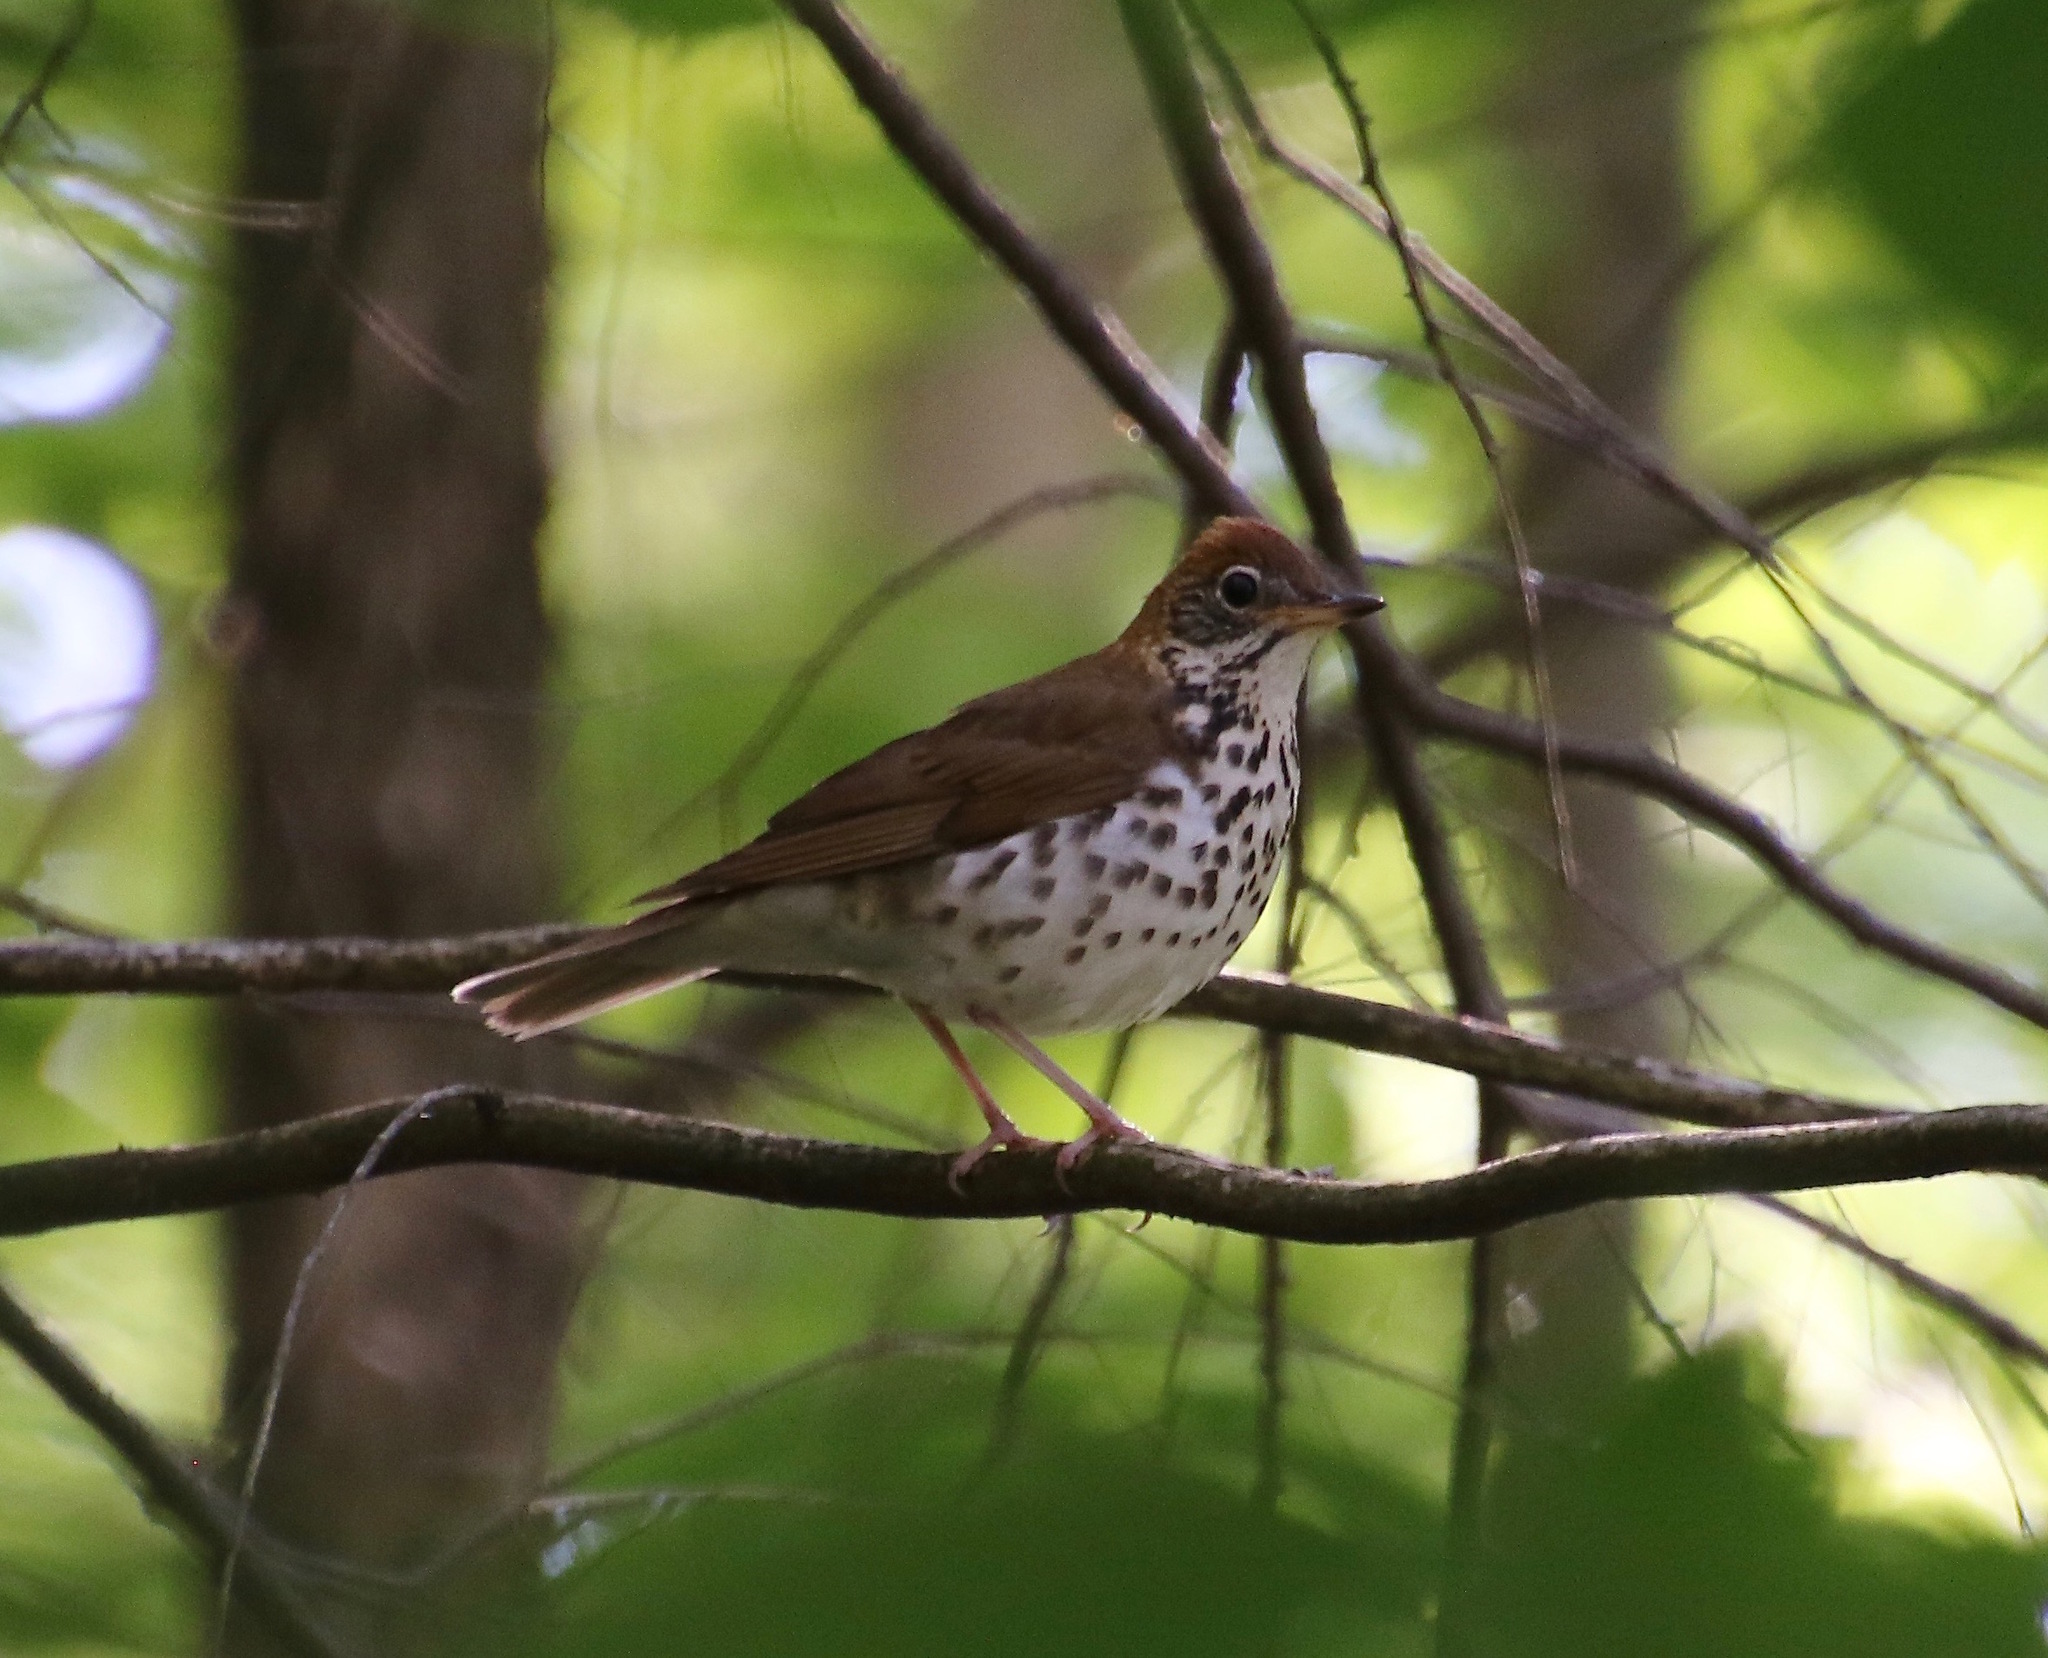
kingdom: Animalia
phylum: Chordata
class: Aves
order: Passeriformes
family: Turdidae
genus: Hylocichla
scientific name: Hylocichla mustelina
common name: Wood thrush
